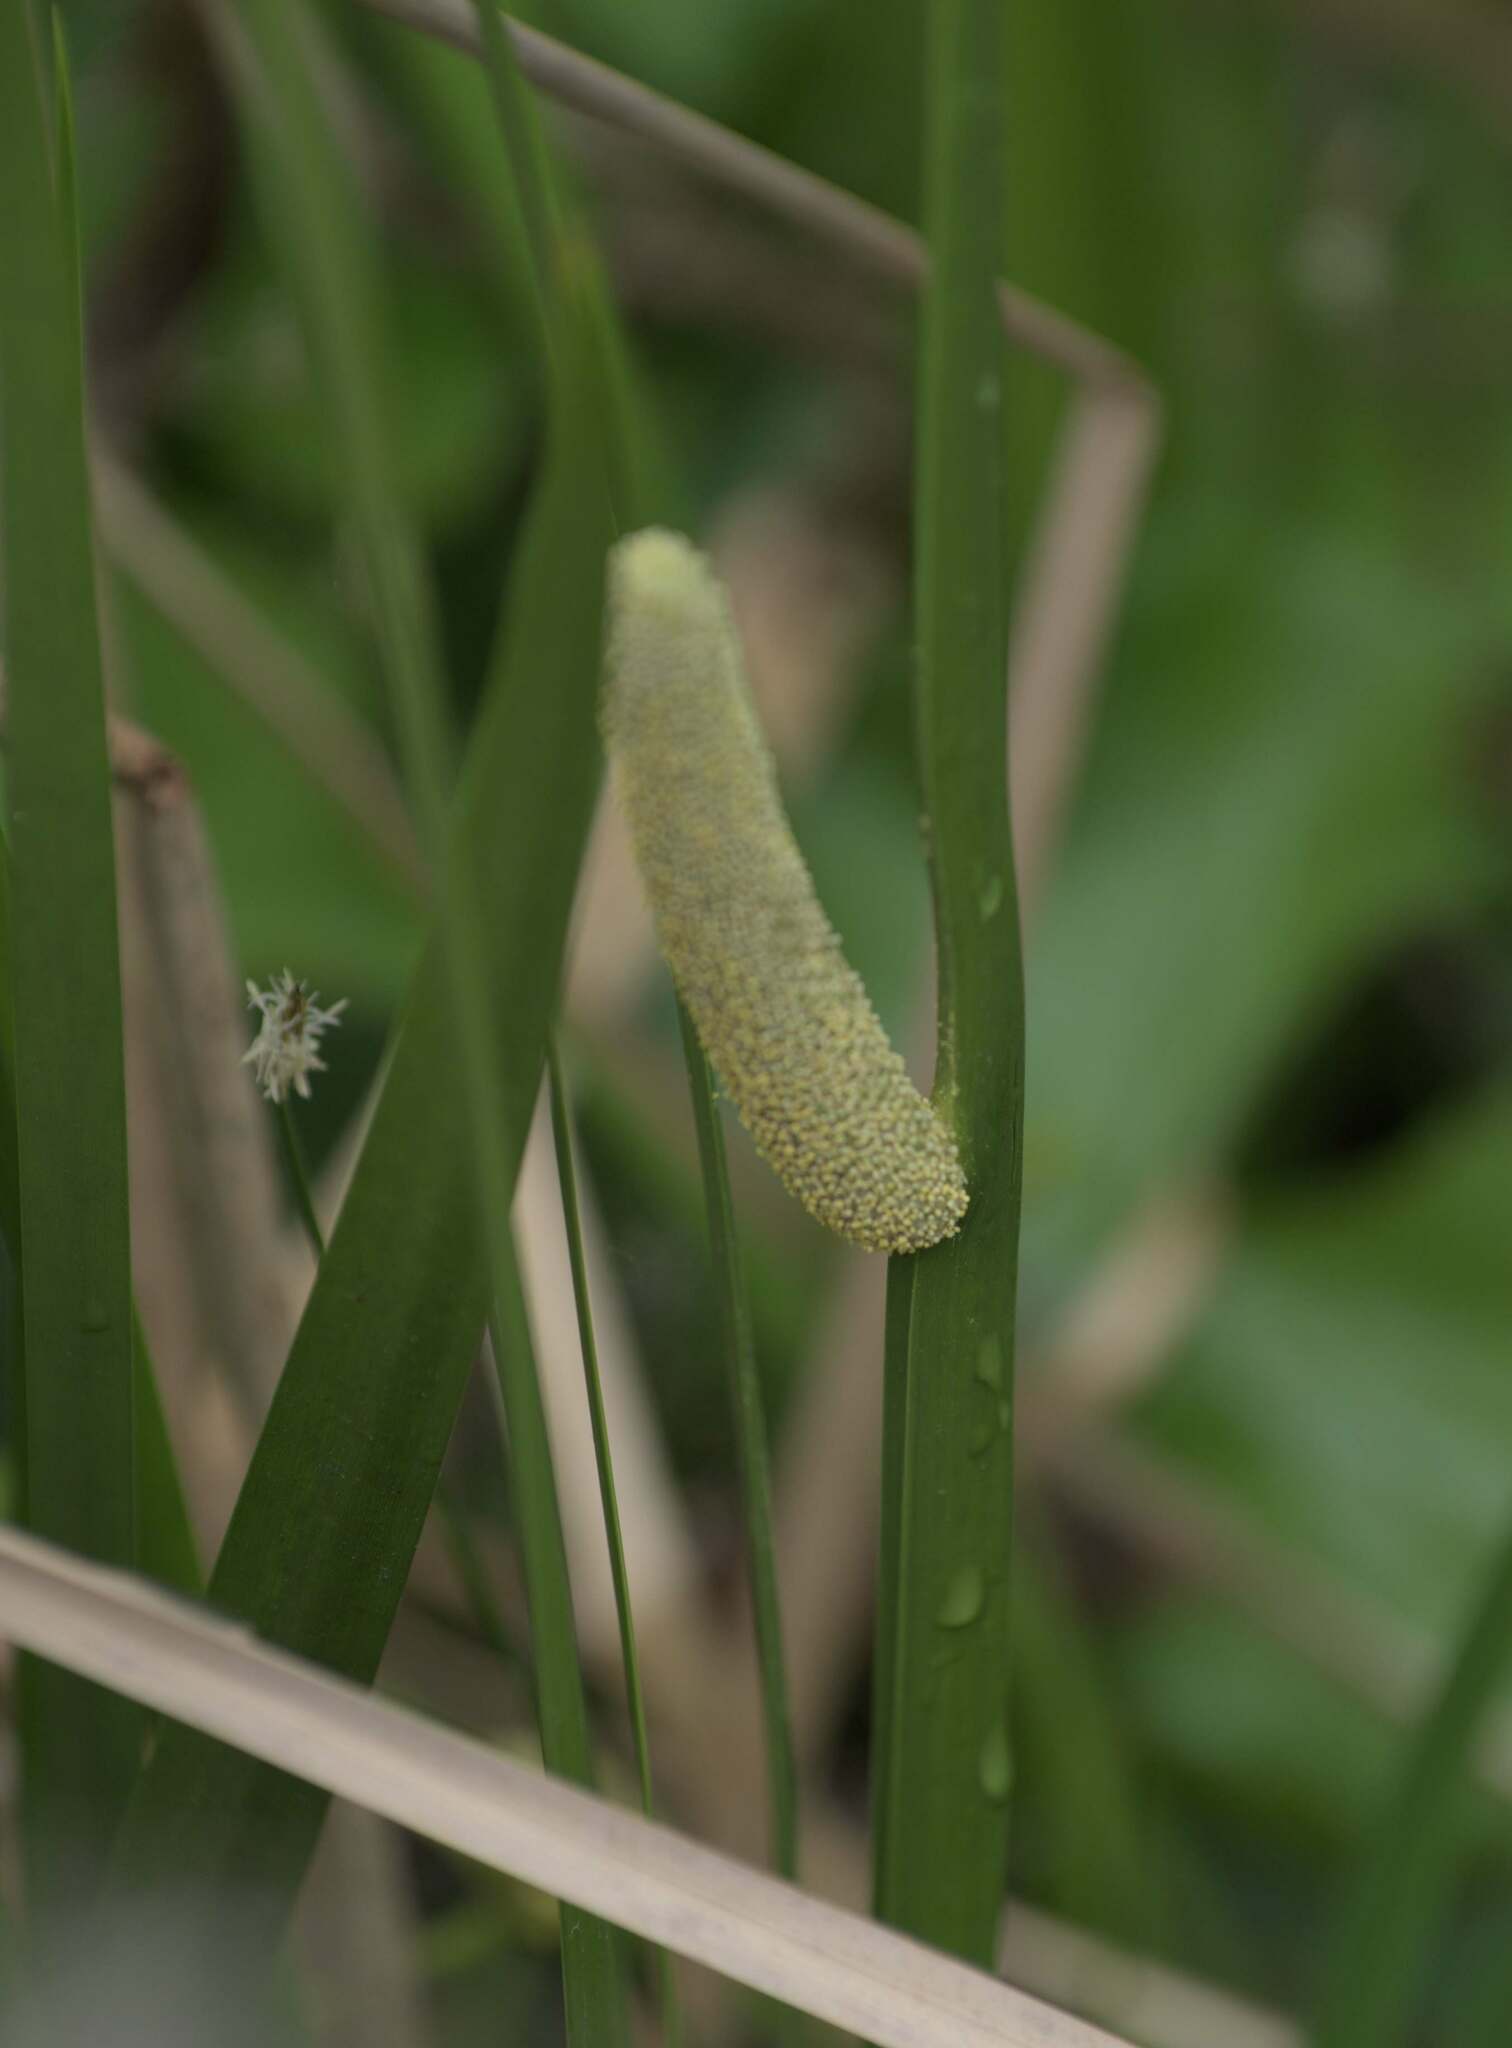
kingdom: Plantae
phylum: Tracheophyta
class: Liliopsida
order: Acorales
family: Acoraceae
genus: Acorus
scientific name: Acorus calamus
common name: Sweet-flag
